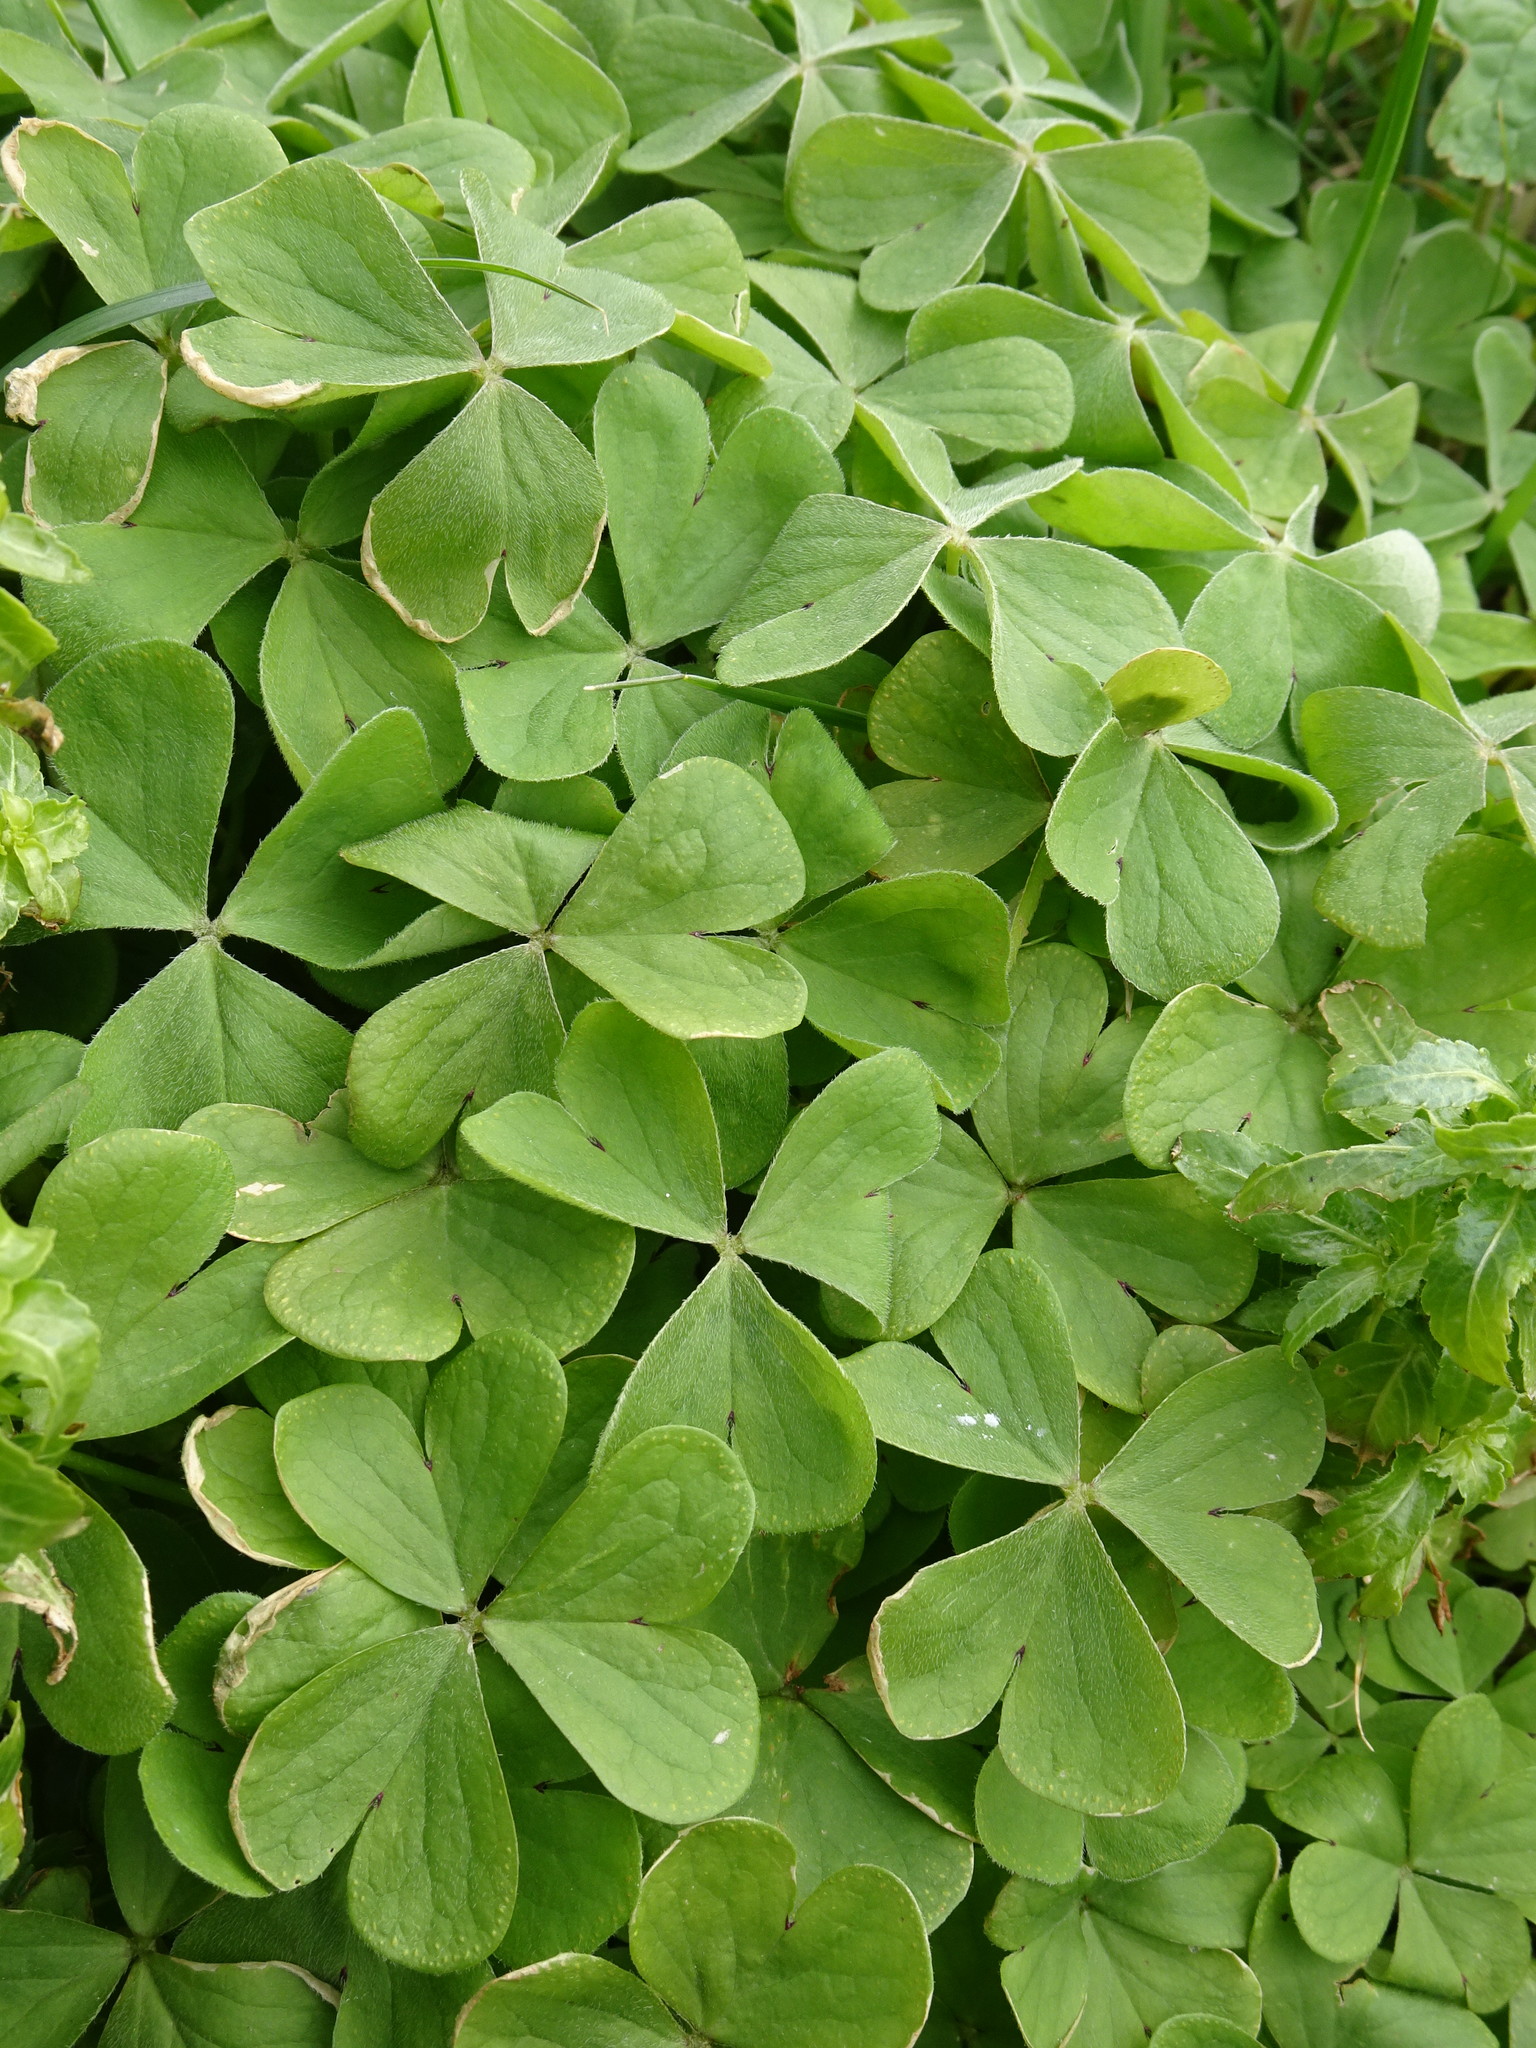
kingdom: Plantae
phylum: Tracheophyta
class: Magnoliopsida
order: Oxalidales
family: Oxalidaceae
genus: Oxalis
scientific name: Oxalis articulata
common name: Pink-sorrel
